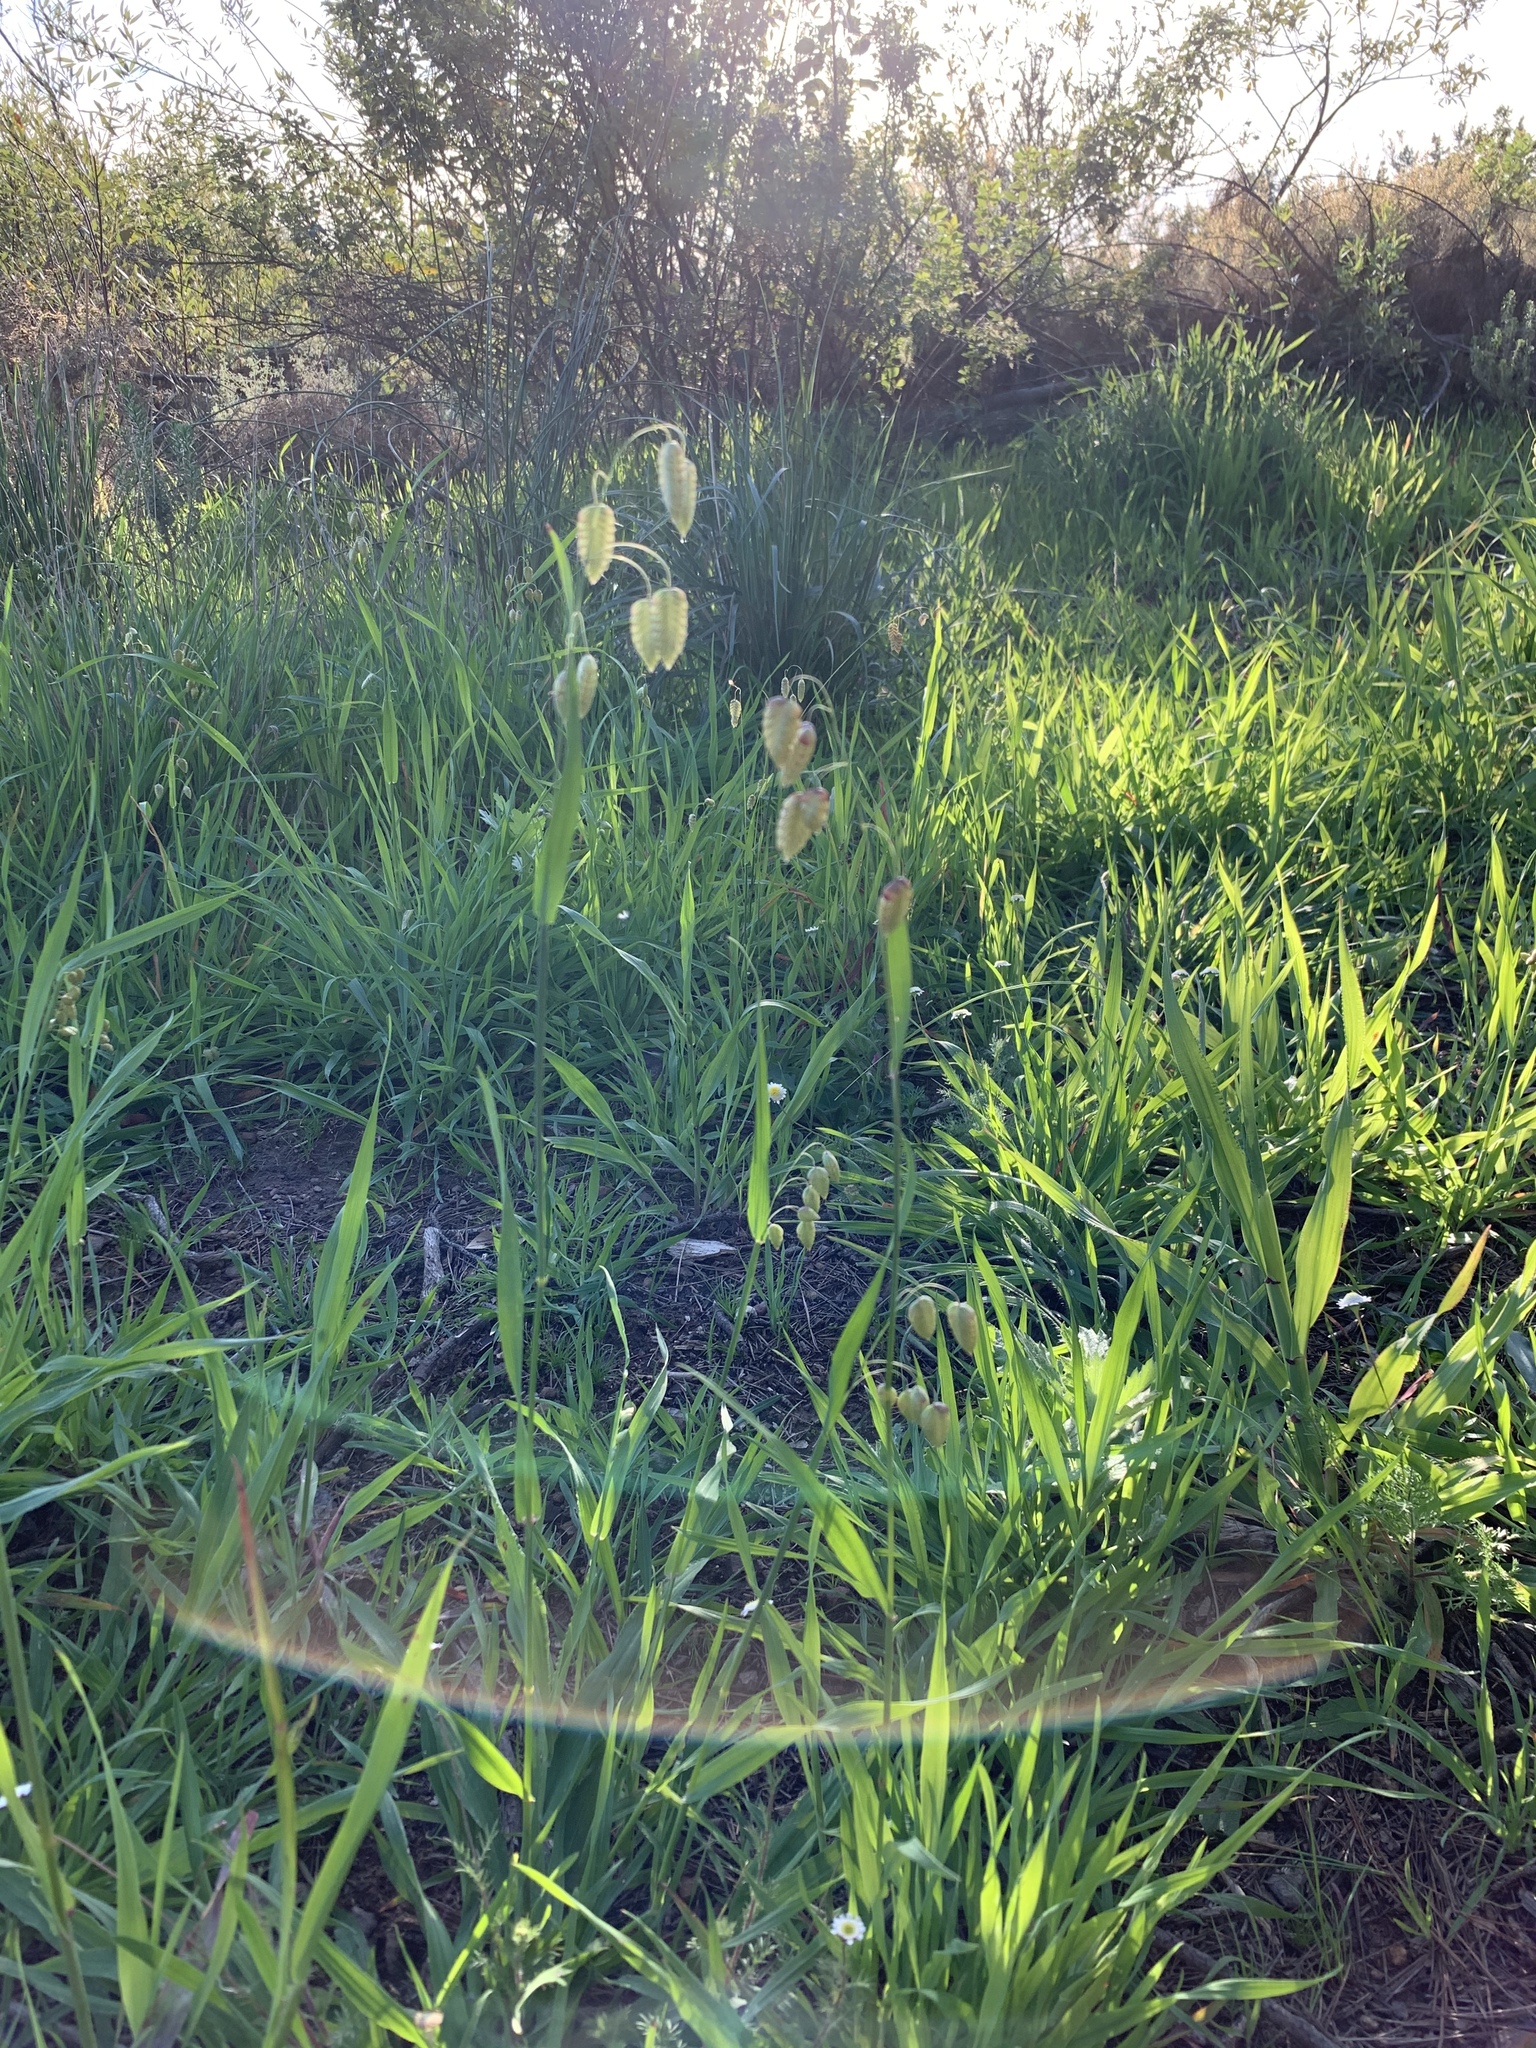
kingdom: Plantae
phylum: Tracheophyta
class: Liliopsida
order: Poales
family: Poaceae
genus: Briza
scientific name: Briza maxima
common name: Big quakinggrass
